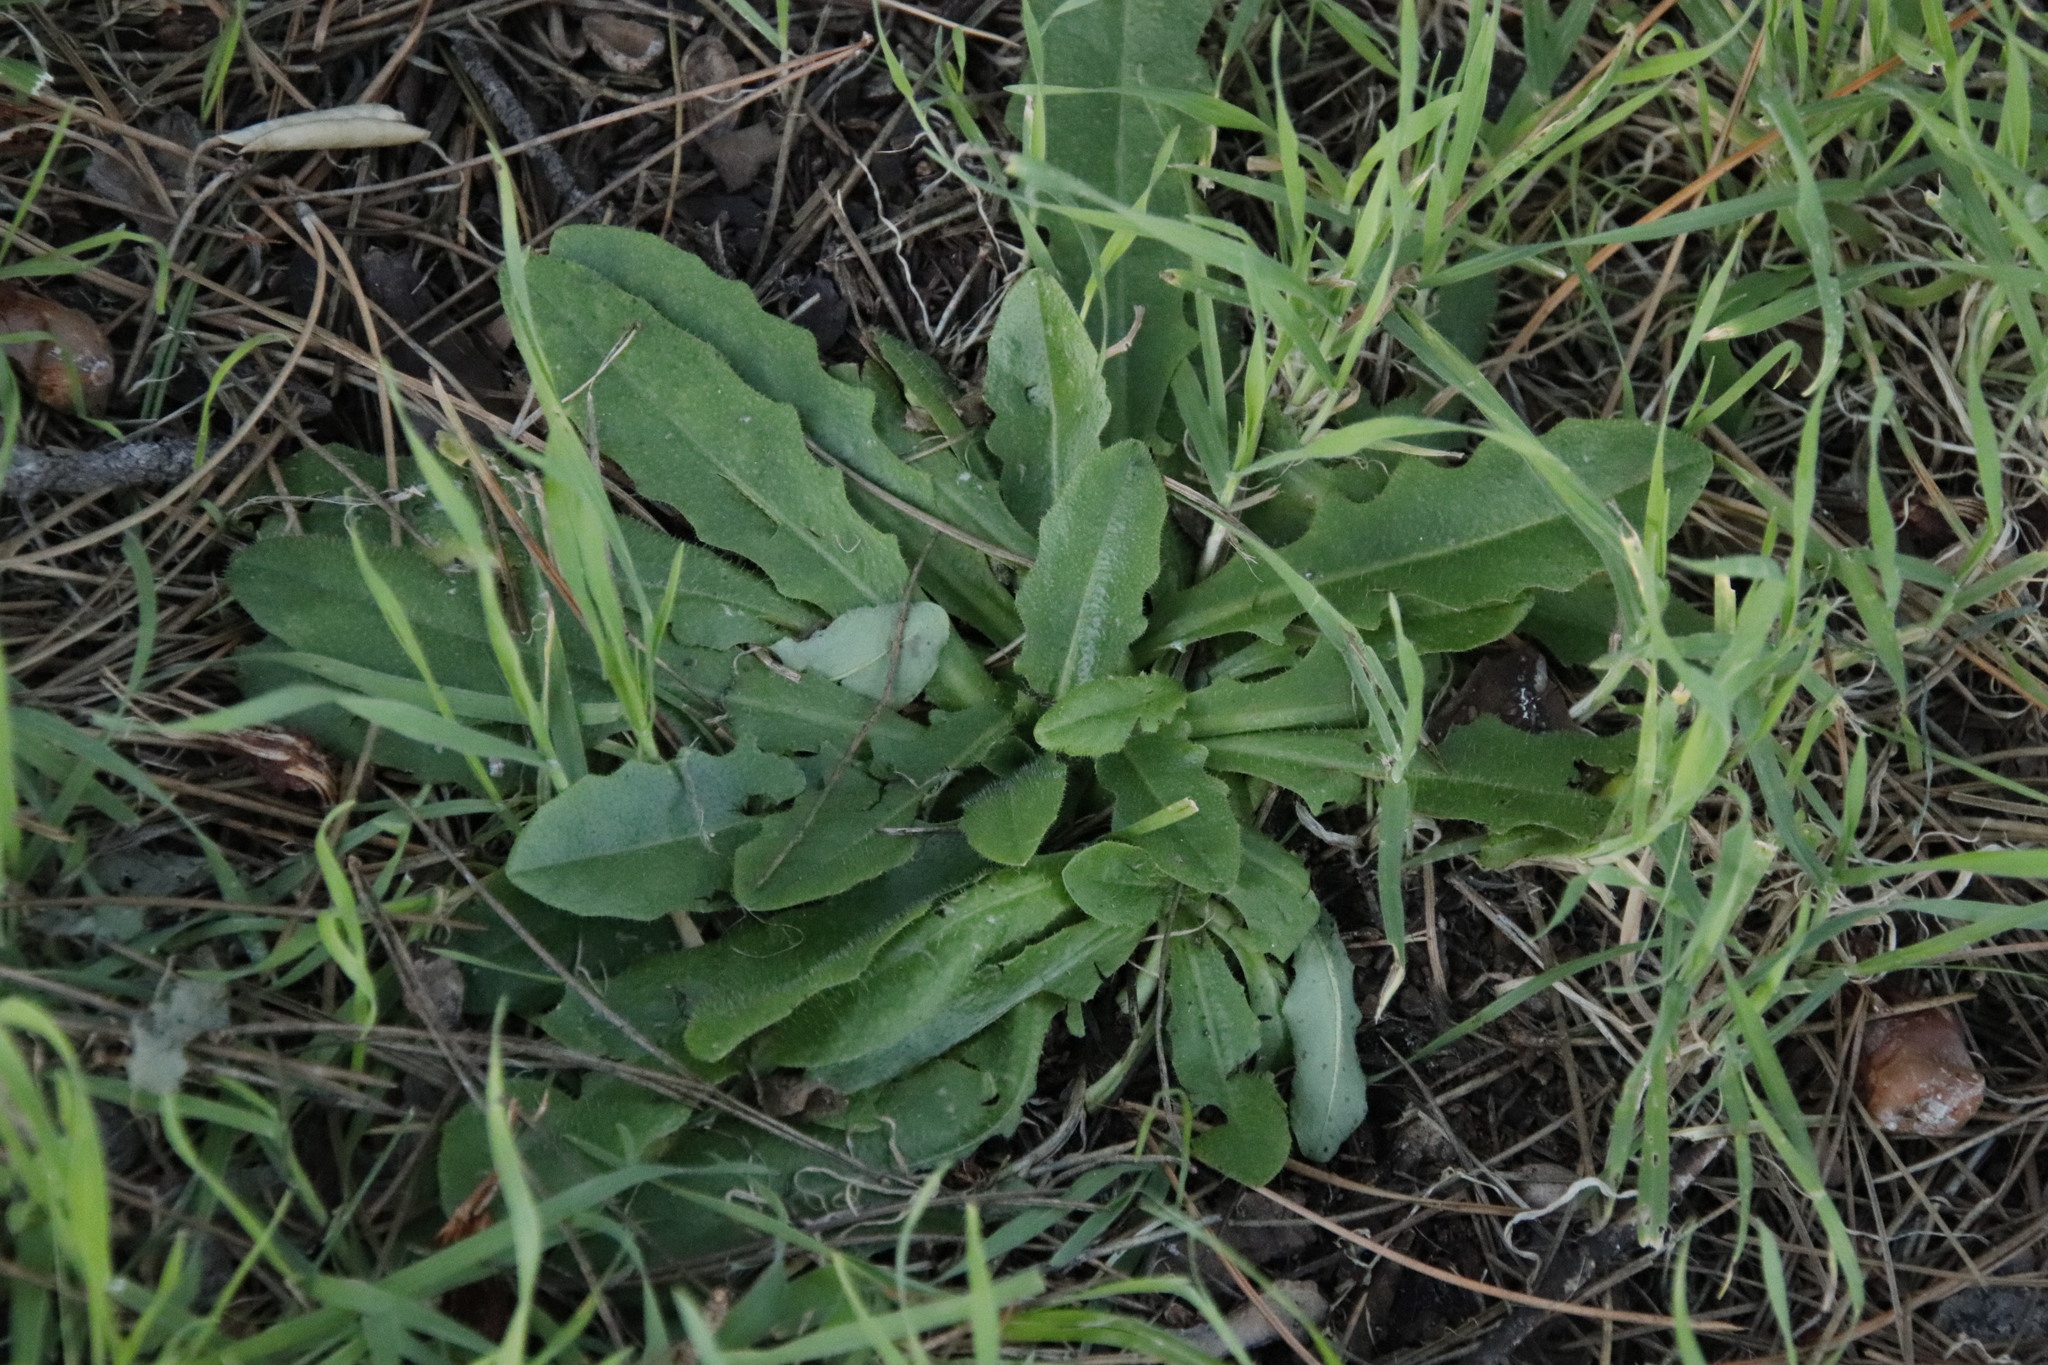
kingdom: Plantae
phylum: Tracheophyta
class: Magnoliopsida
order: Asterales
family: Asteraceae
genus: Hypochaeris
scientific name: Hypochaeris radicata
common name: Flatweed
